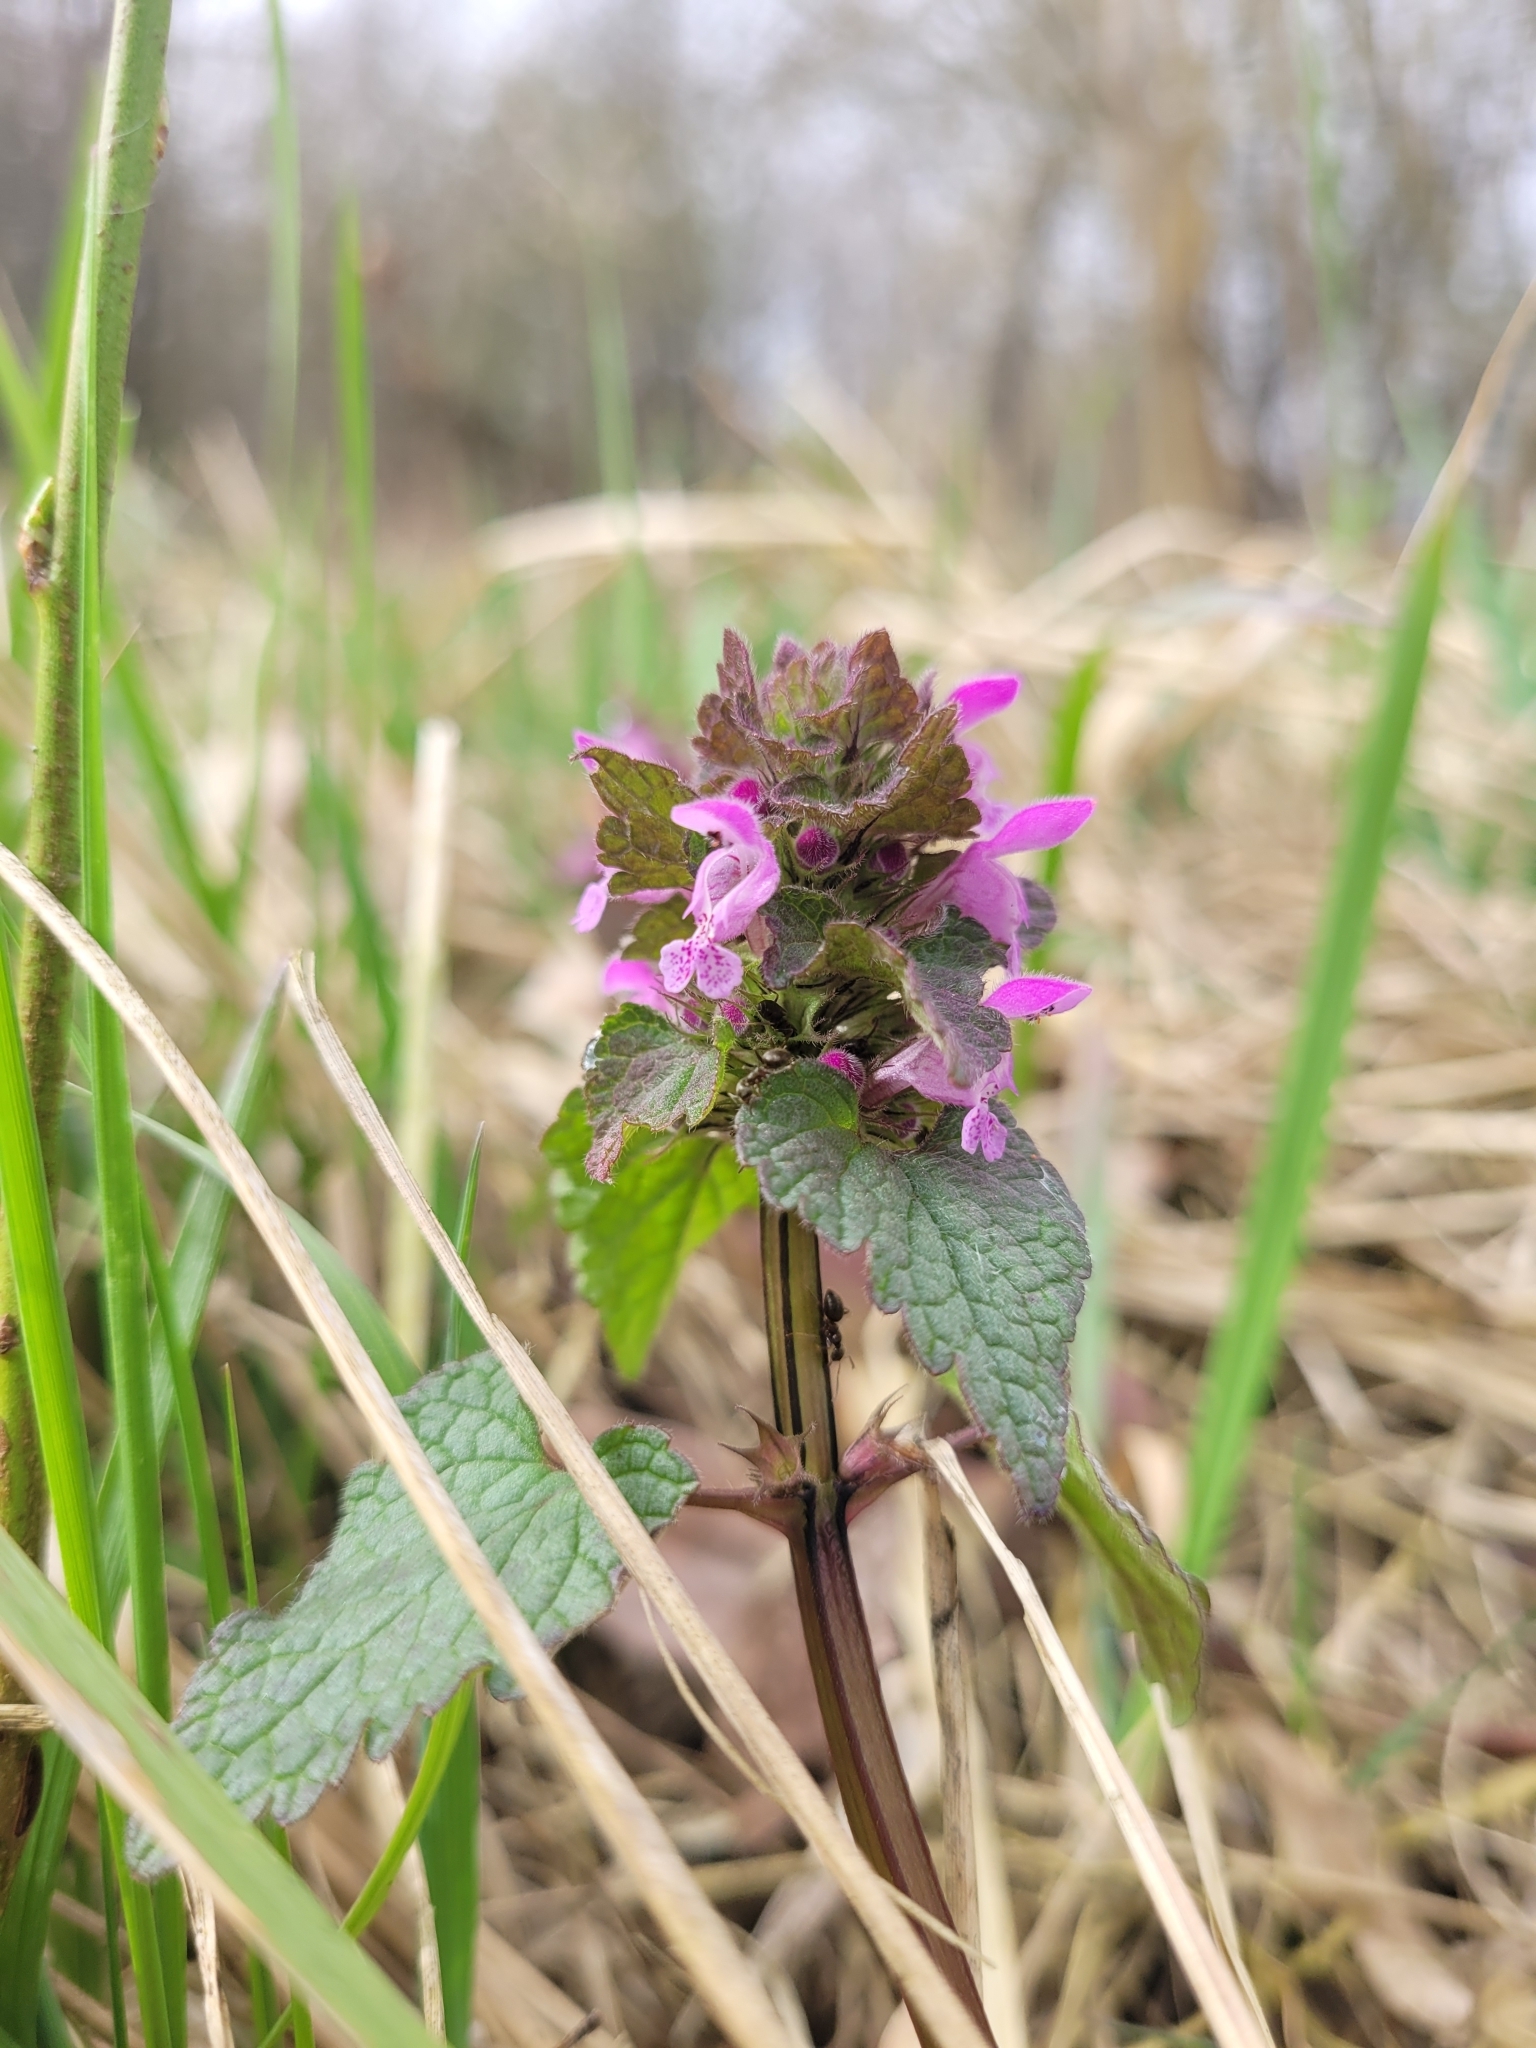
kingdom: Plantae
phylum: Tracheophyta
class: Magnoliopsida
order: Lamiales
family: Lamiaceae
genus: Lamium
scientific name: Lamium purpureum
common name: Red dead-nettle
